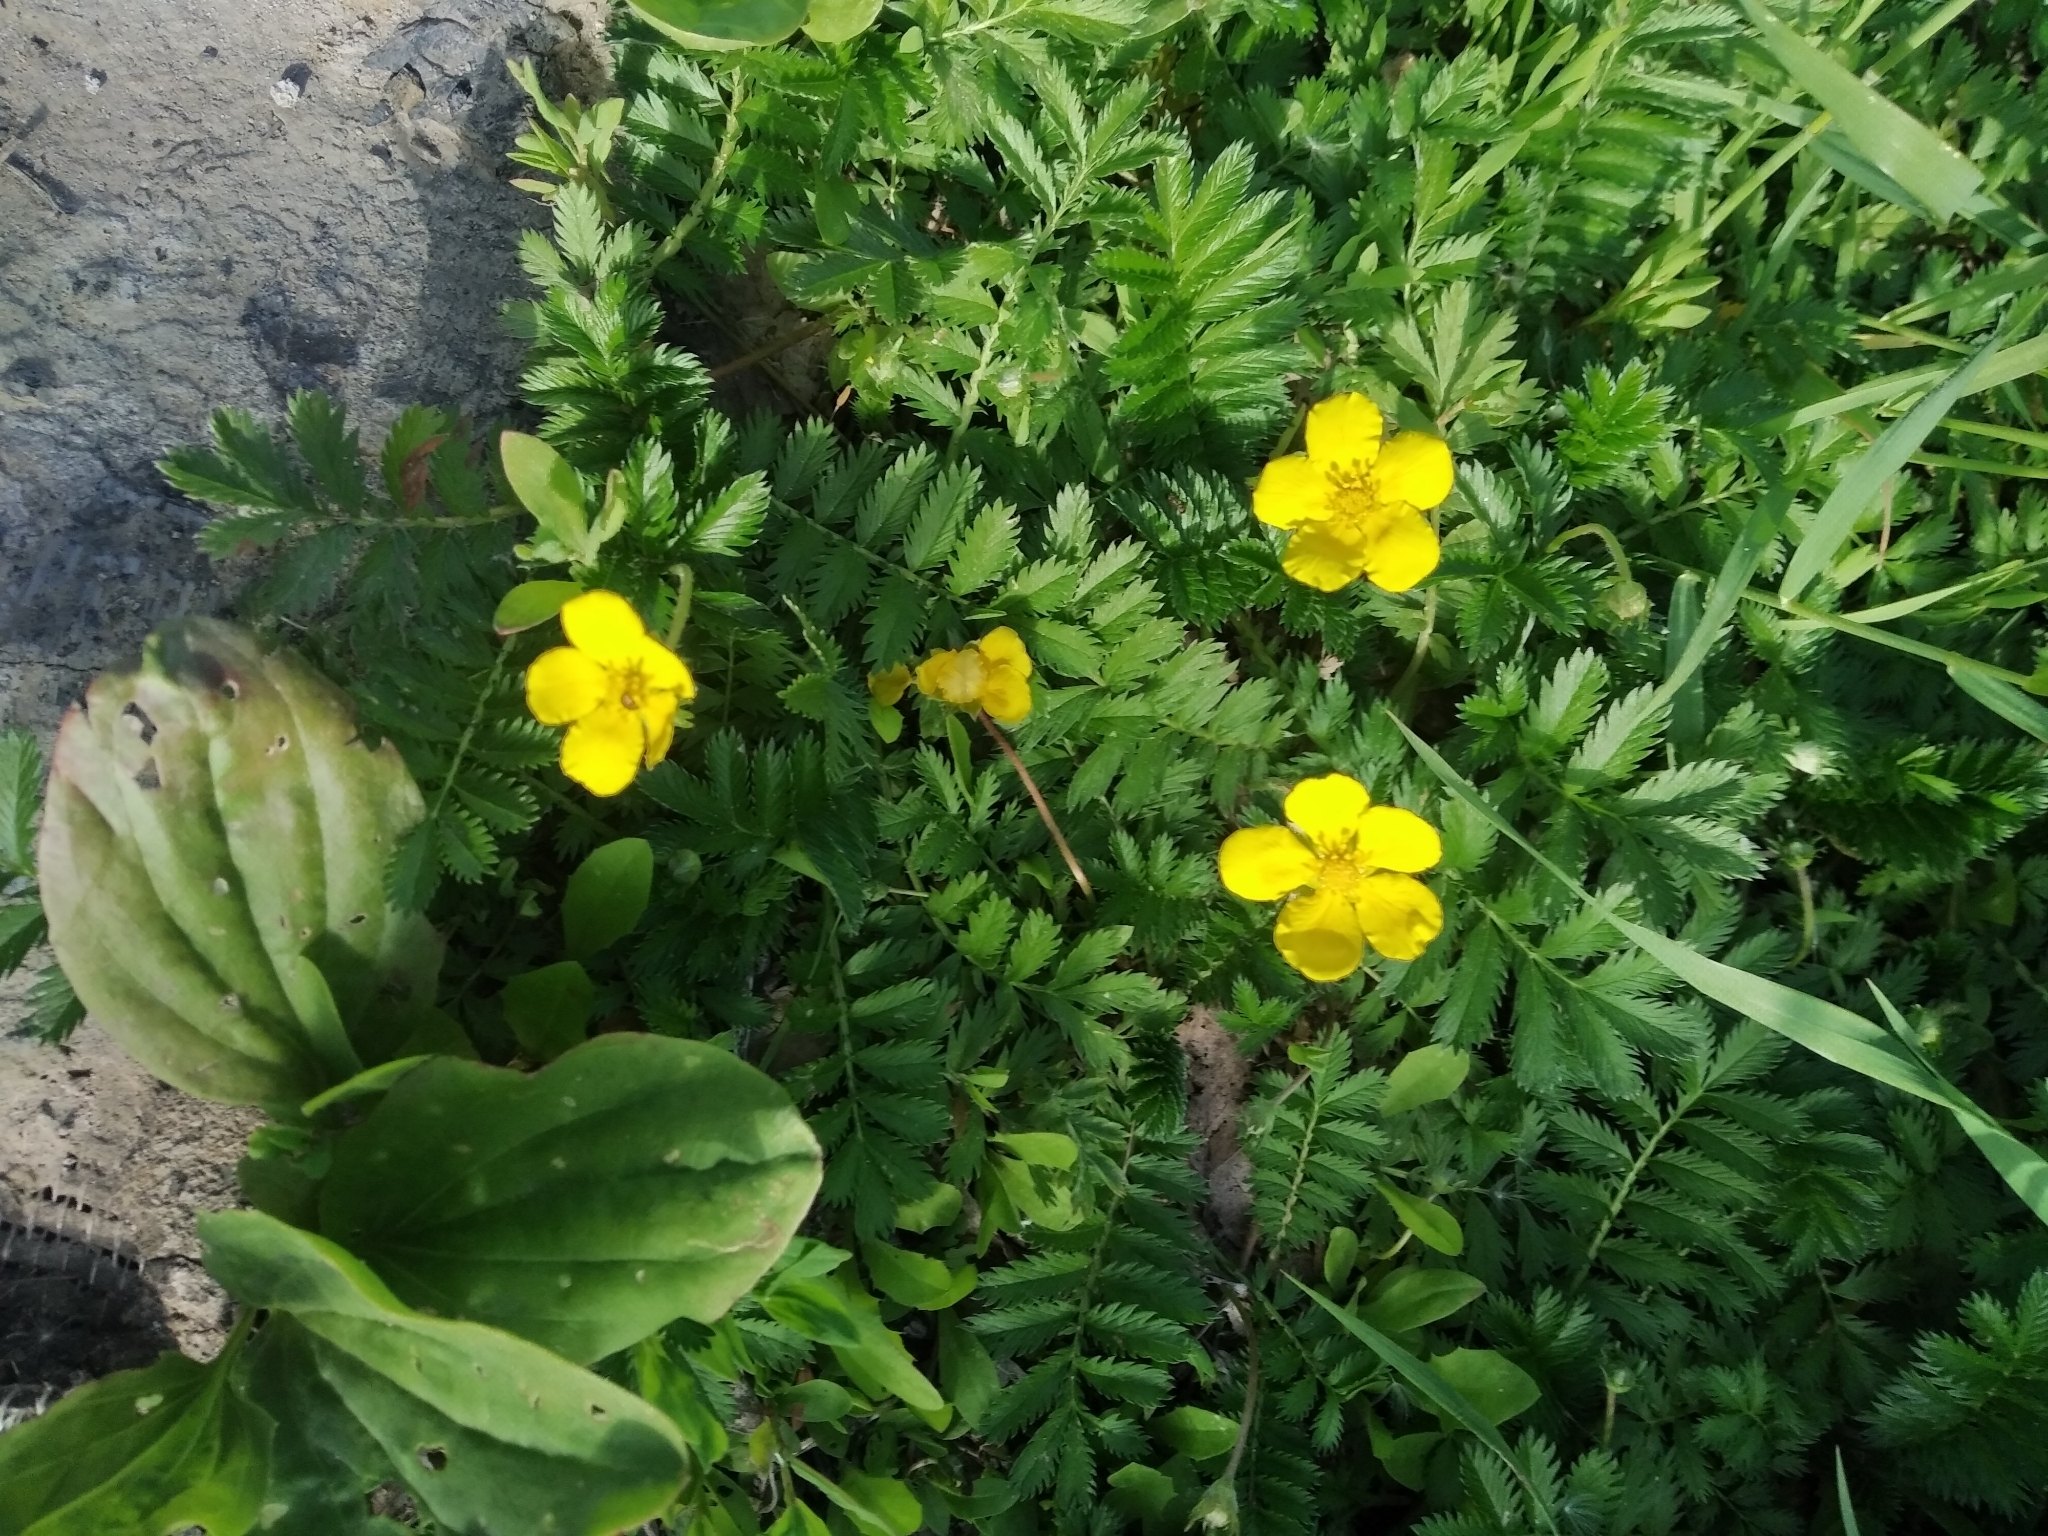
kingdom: Plantae
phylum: Tracheophyta
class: Magnoliopsida
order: Rosales
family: Rosaceae
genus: Argentina
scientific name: Argentina anserina
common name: Common silverweed
